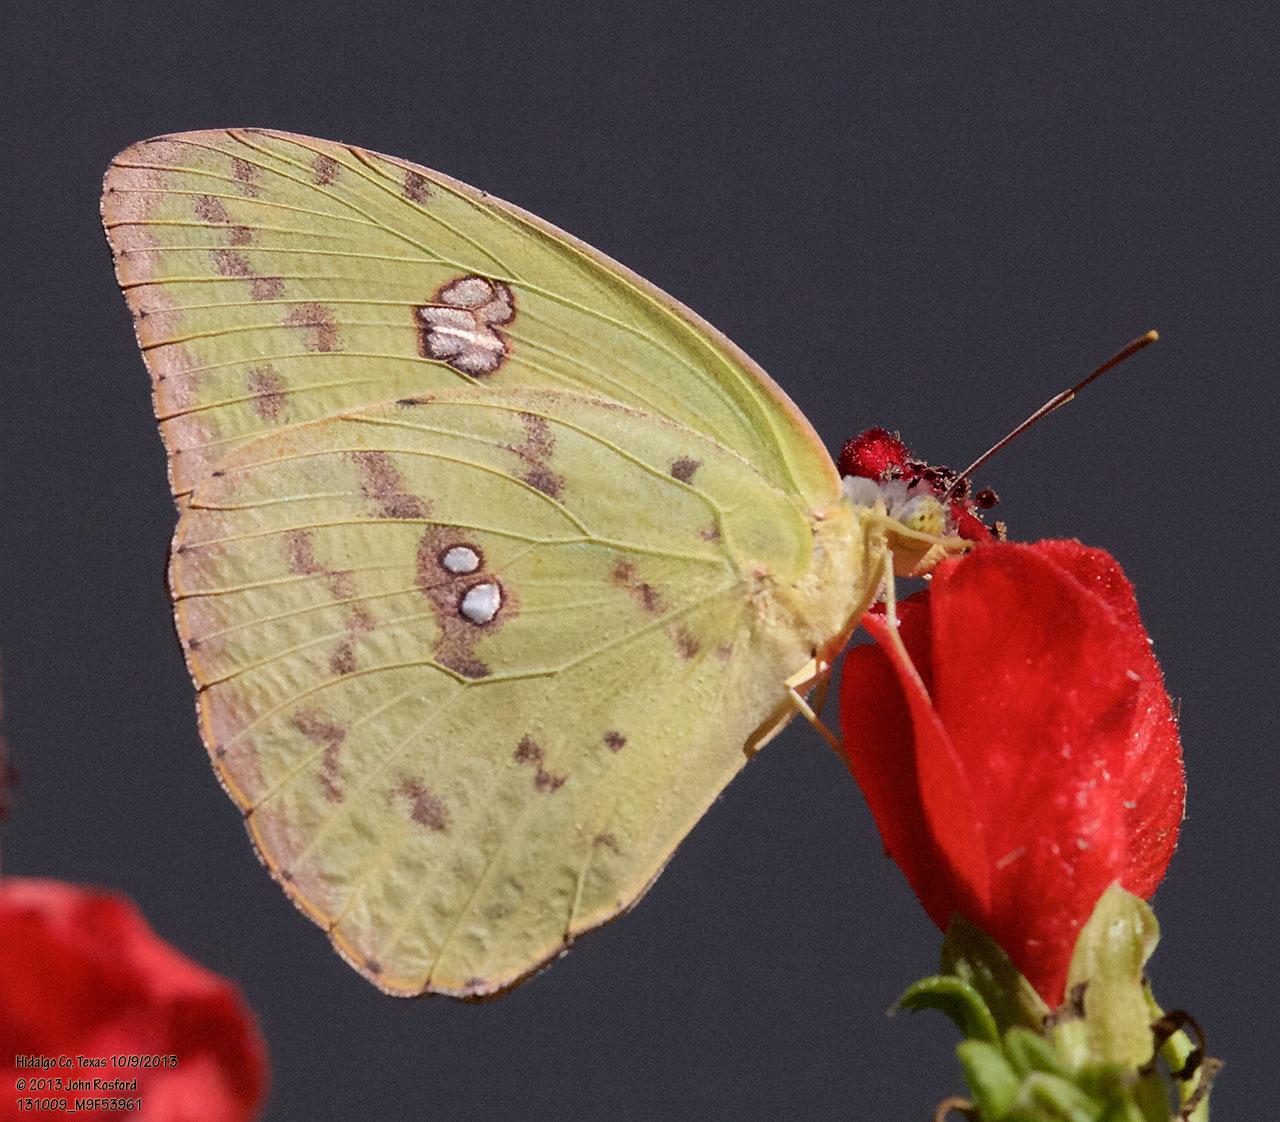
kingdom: Animalia
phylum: Arthropoda
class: Insecta
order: Lepidoptera
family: Pieridae
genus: Phoebis
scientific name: Phoebis sennae
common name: Cloudless sulphur
